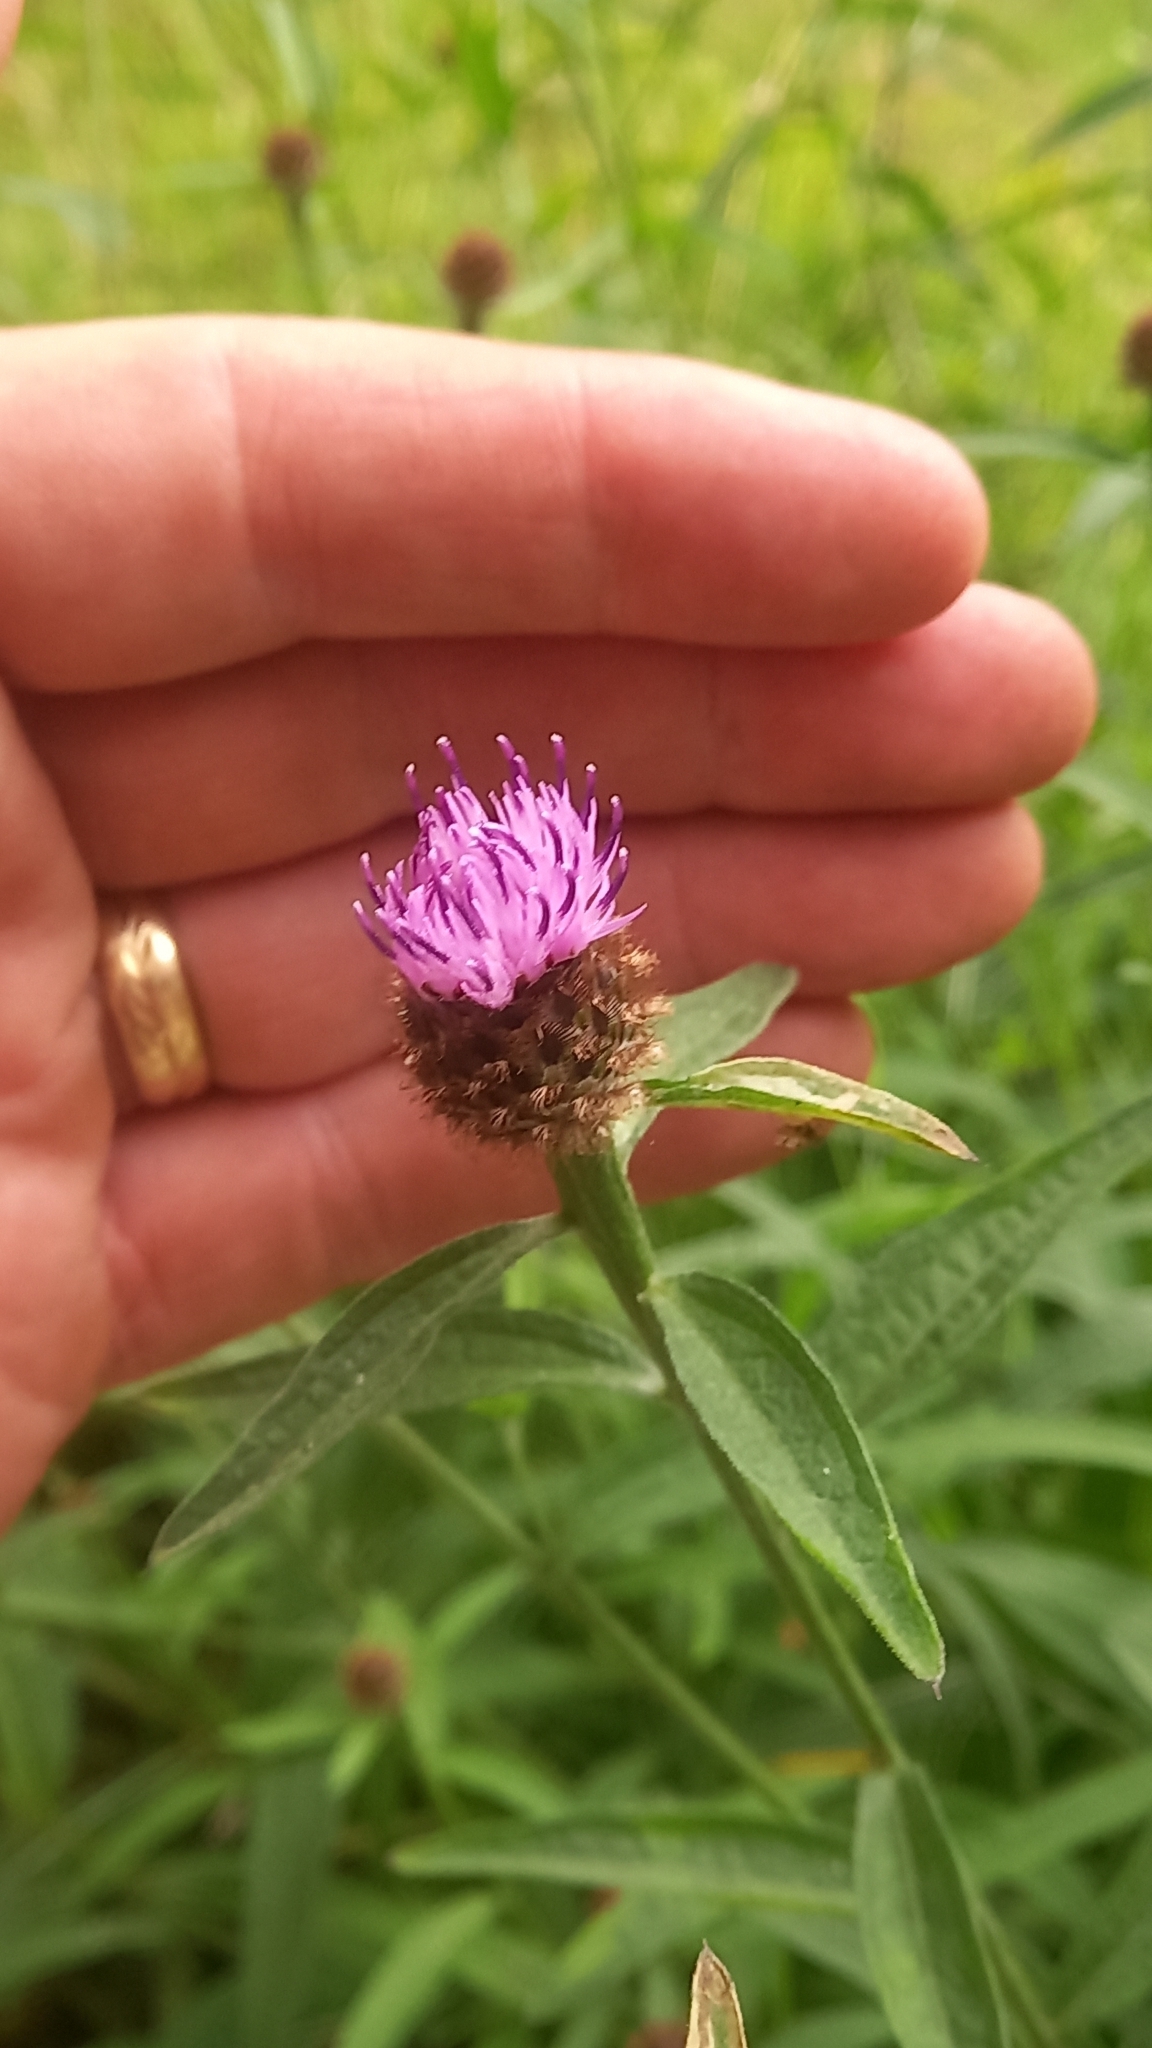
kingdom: Plantae
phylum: Tracheophyta
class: Magnoliopsida
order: Asterales
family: Asteraceae
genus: Centaurea
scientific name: Centaurea nigra
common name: Lesser knapweed
